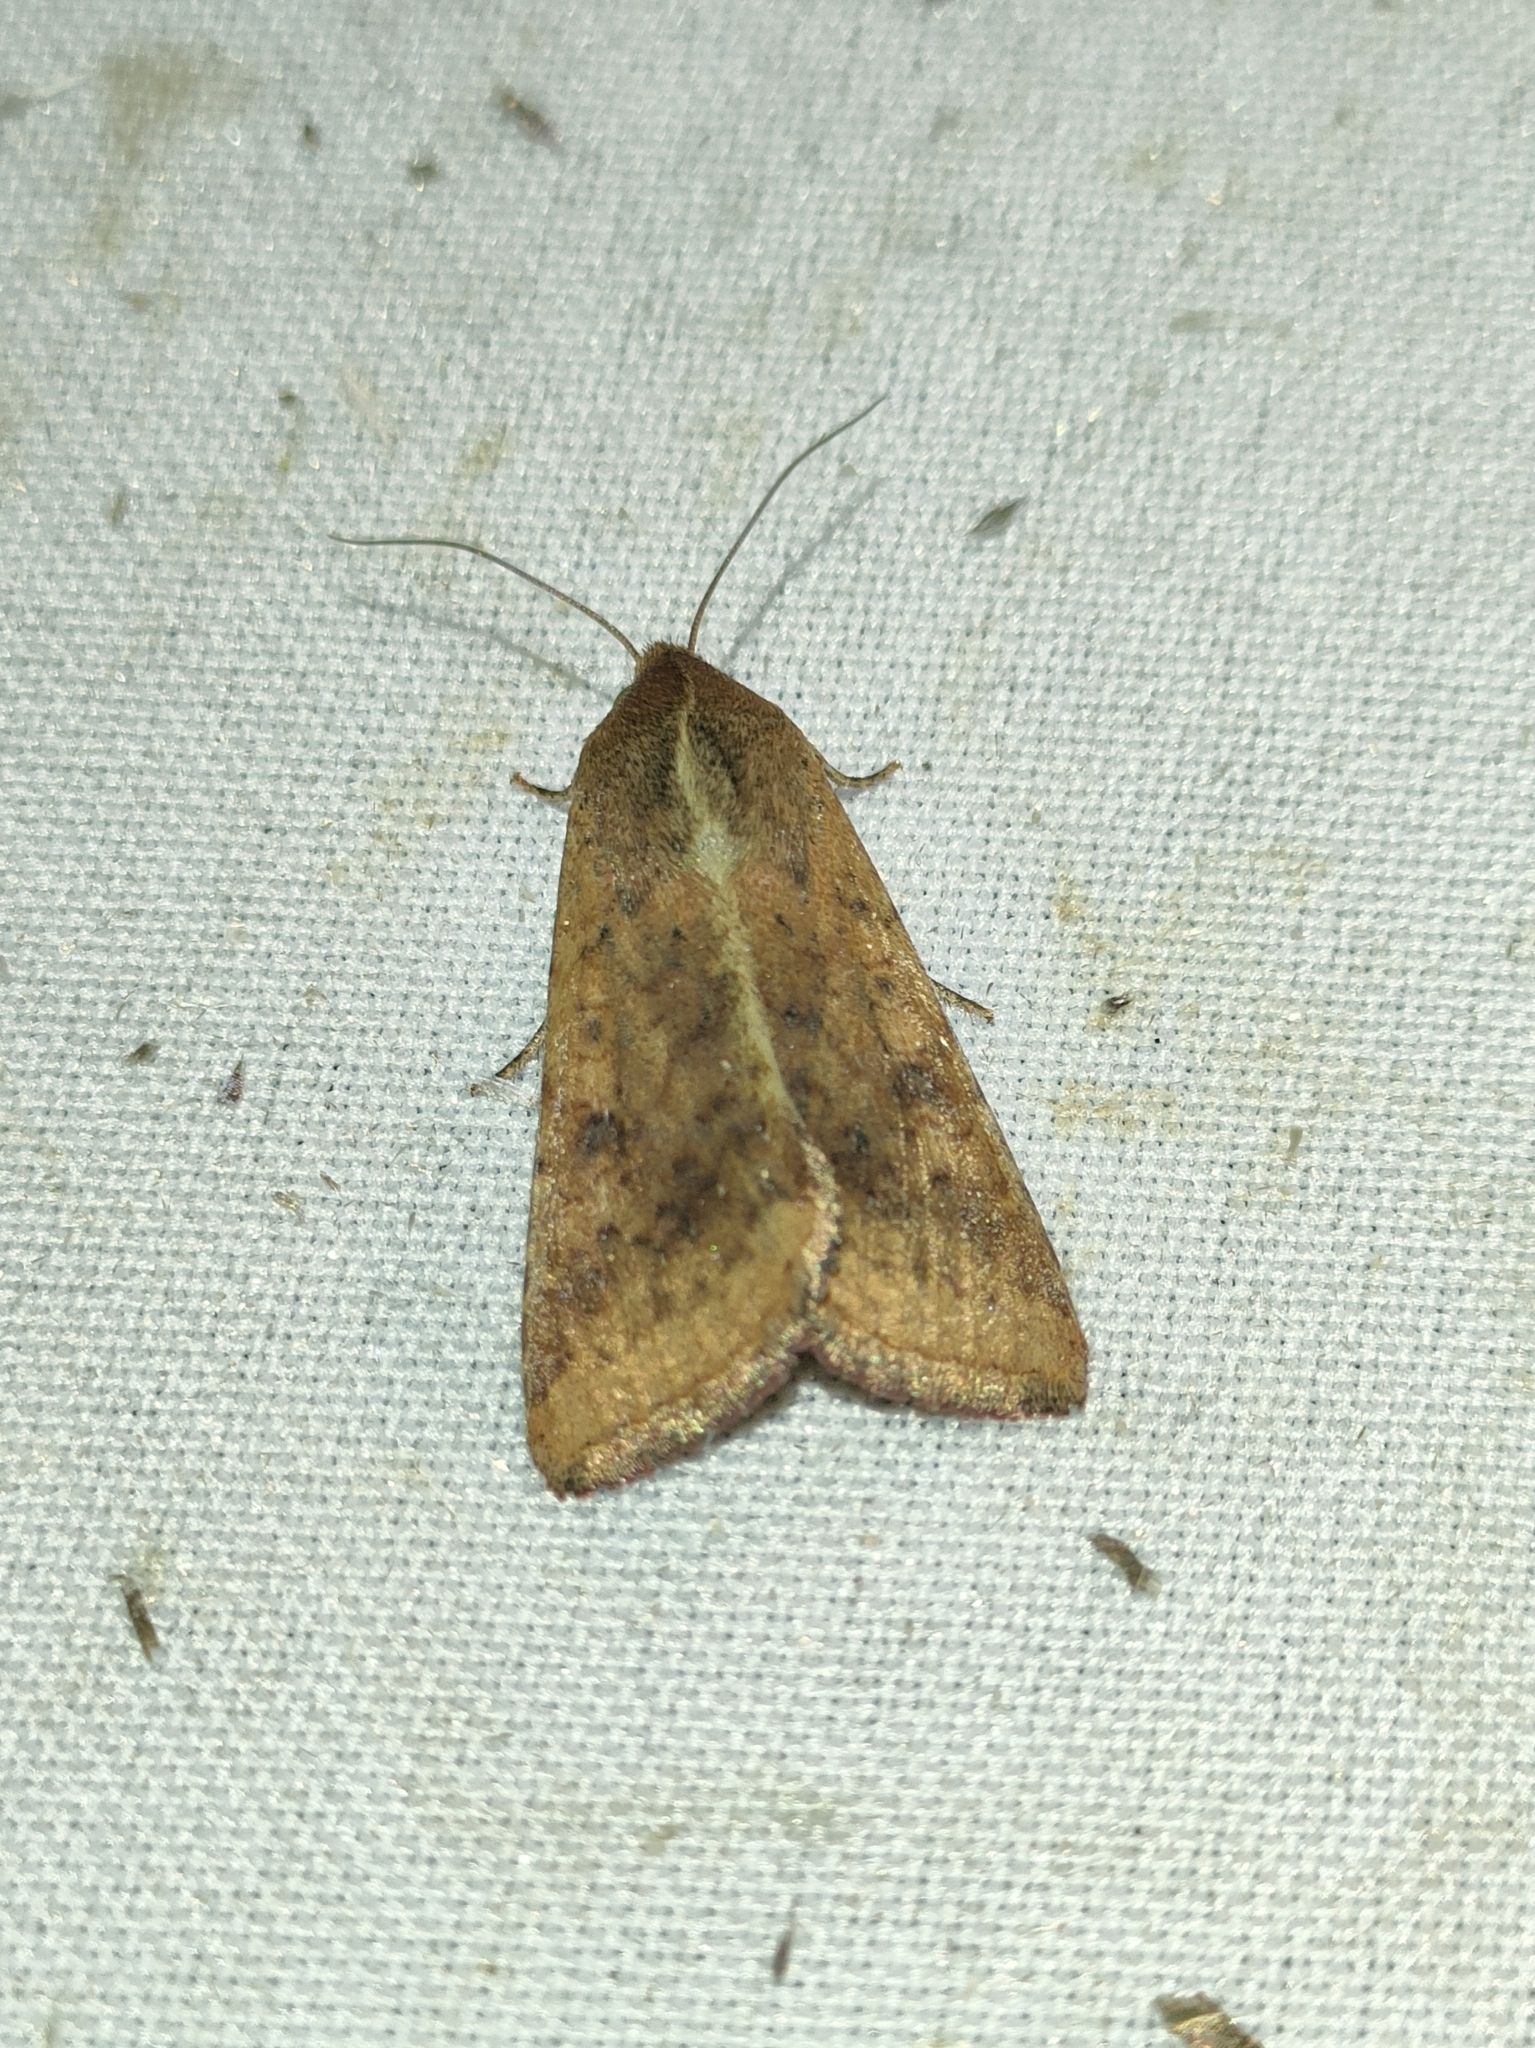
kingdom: Animalia
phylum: Arthropoda
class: Insecta
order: Lepidoptera
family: Noctuidae
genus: Helicoverpa
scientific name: Helicoverpa armigera
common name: Cotton bollworm
